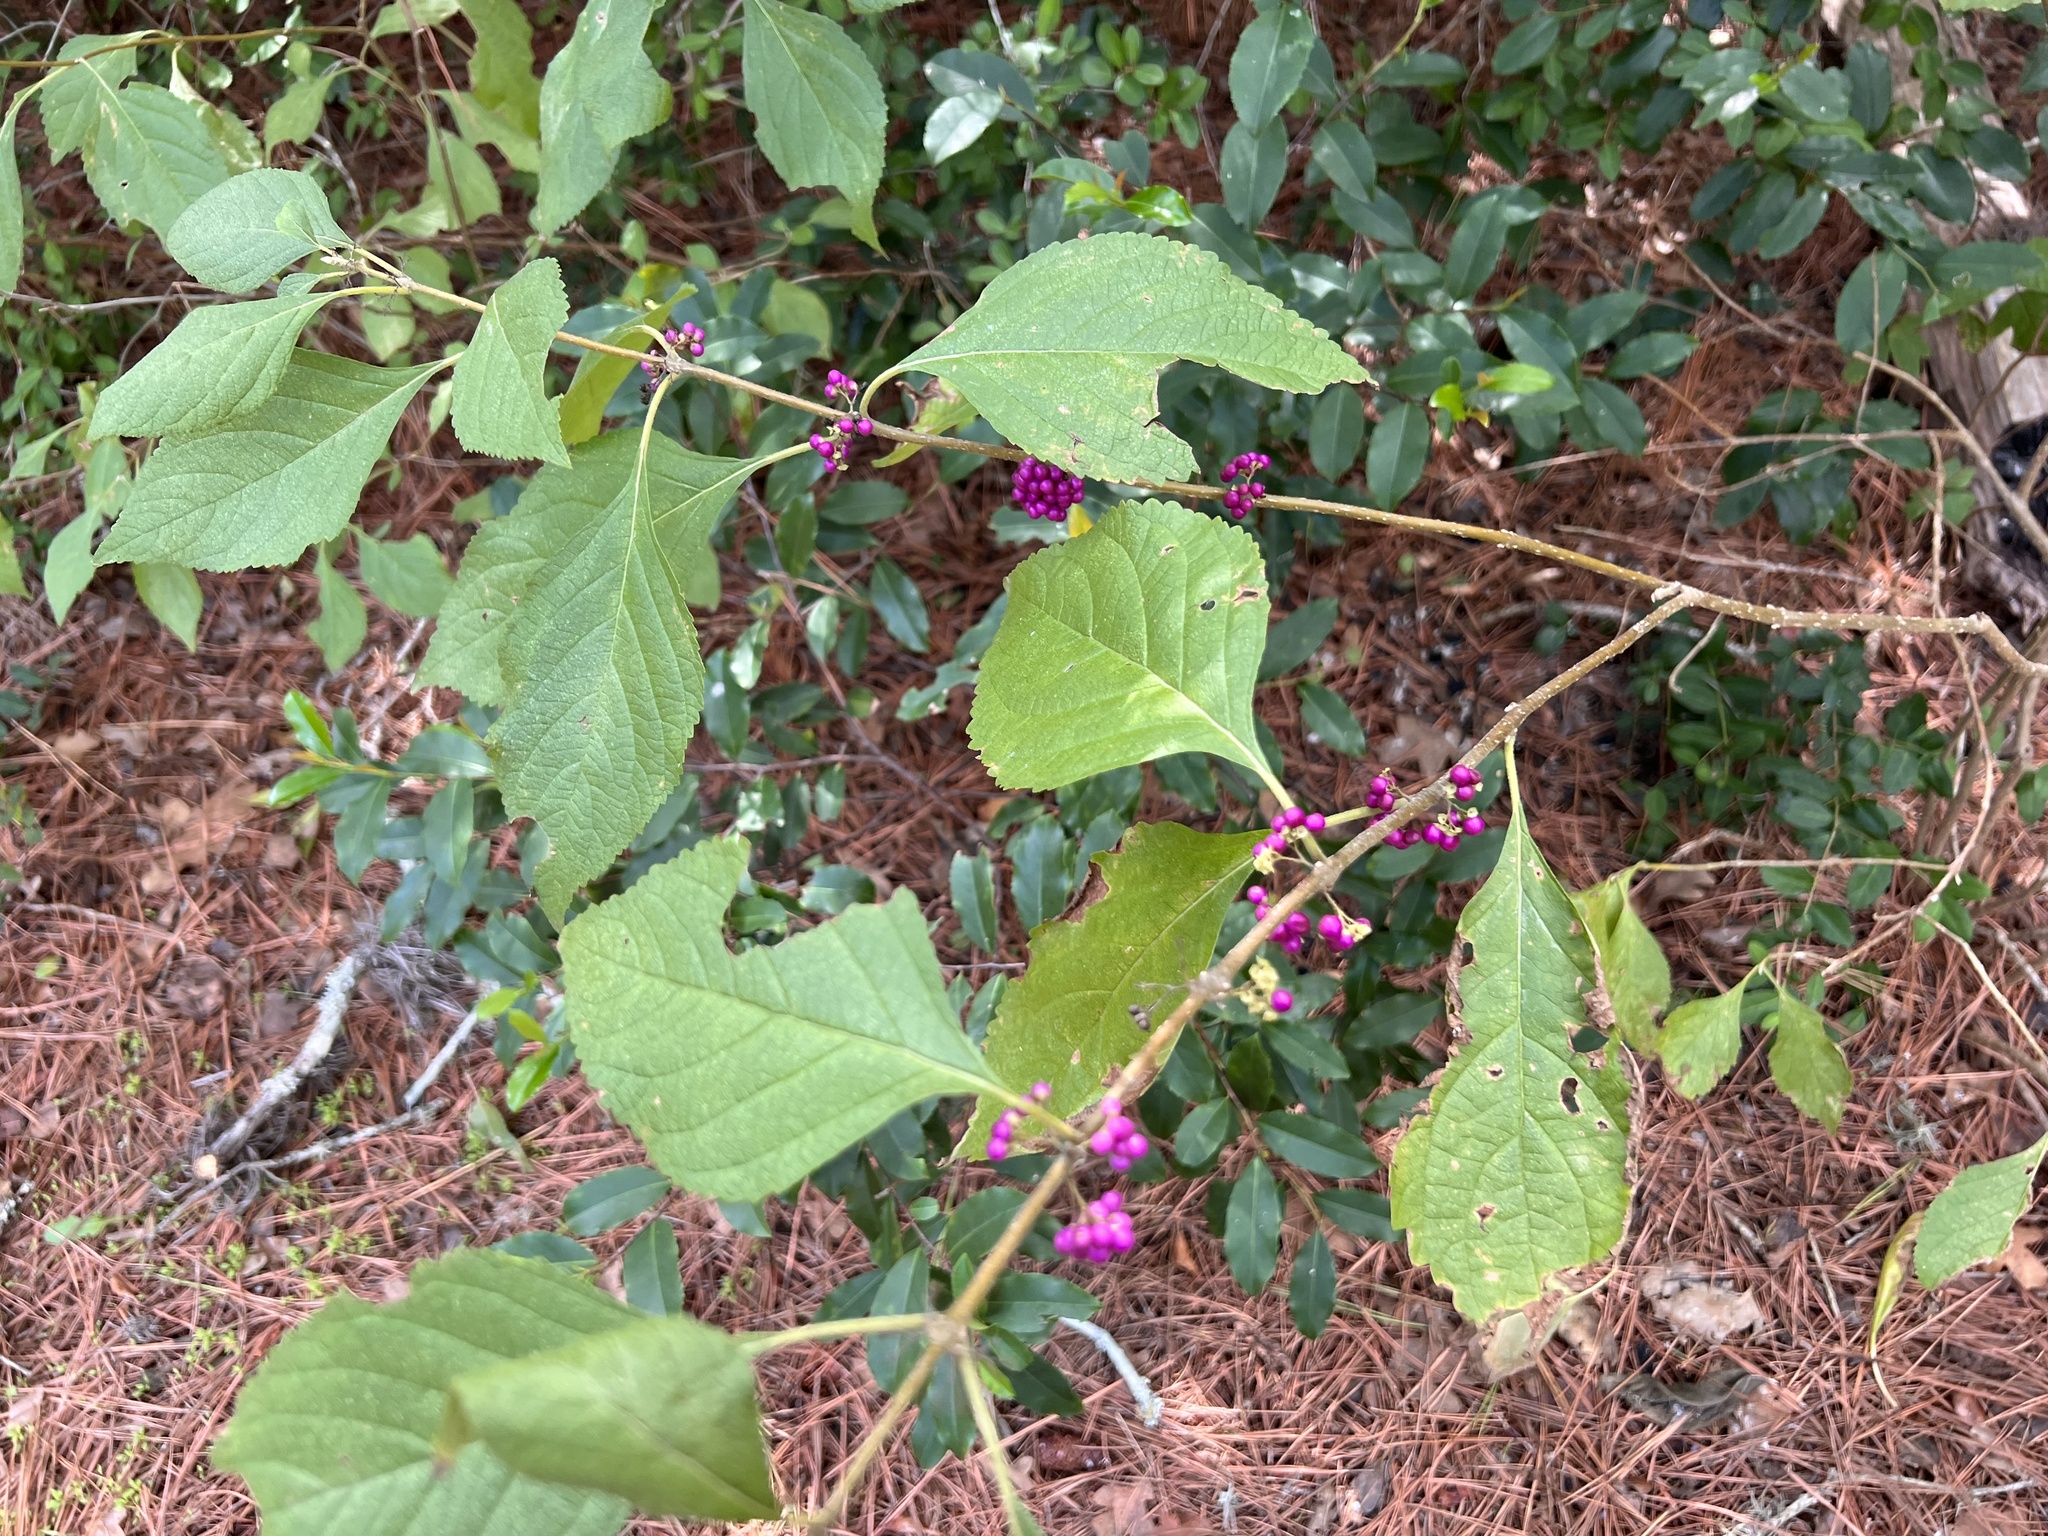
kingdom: Plantae
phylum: Tracheophyta
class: Magnoliopsida
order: Lamiales
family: Lamiaceae
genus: Callicarpa
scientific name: Callicarpa americana
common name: American beautyberry
